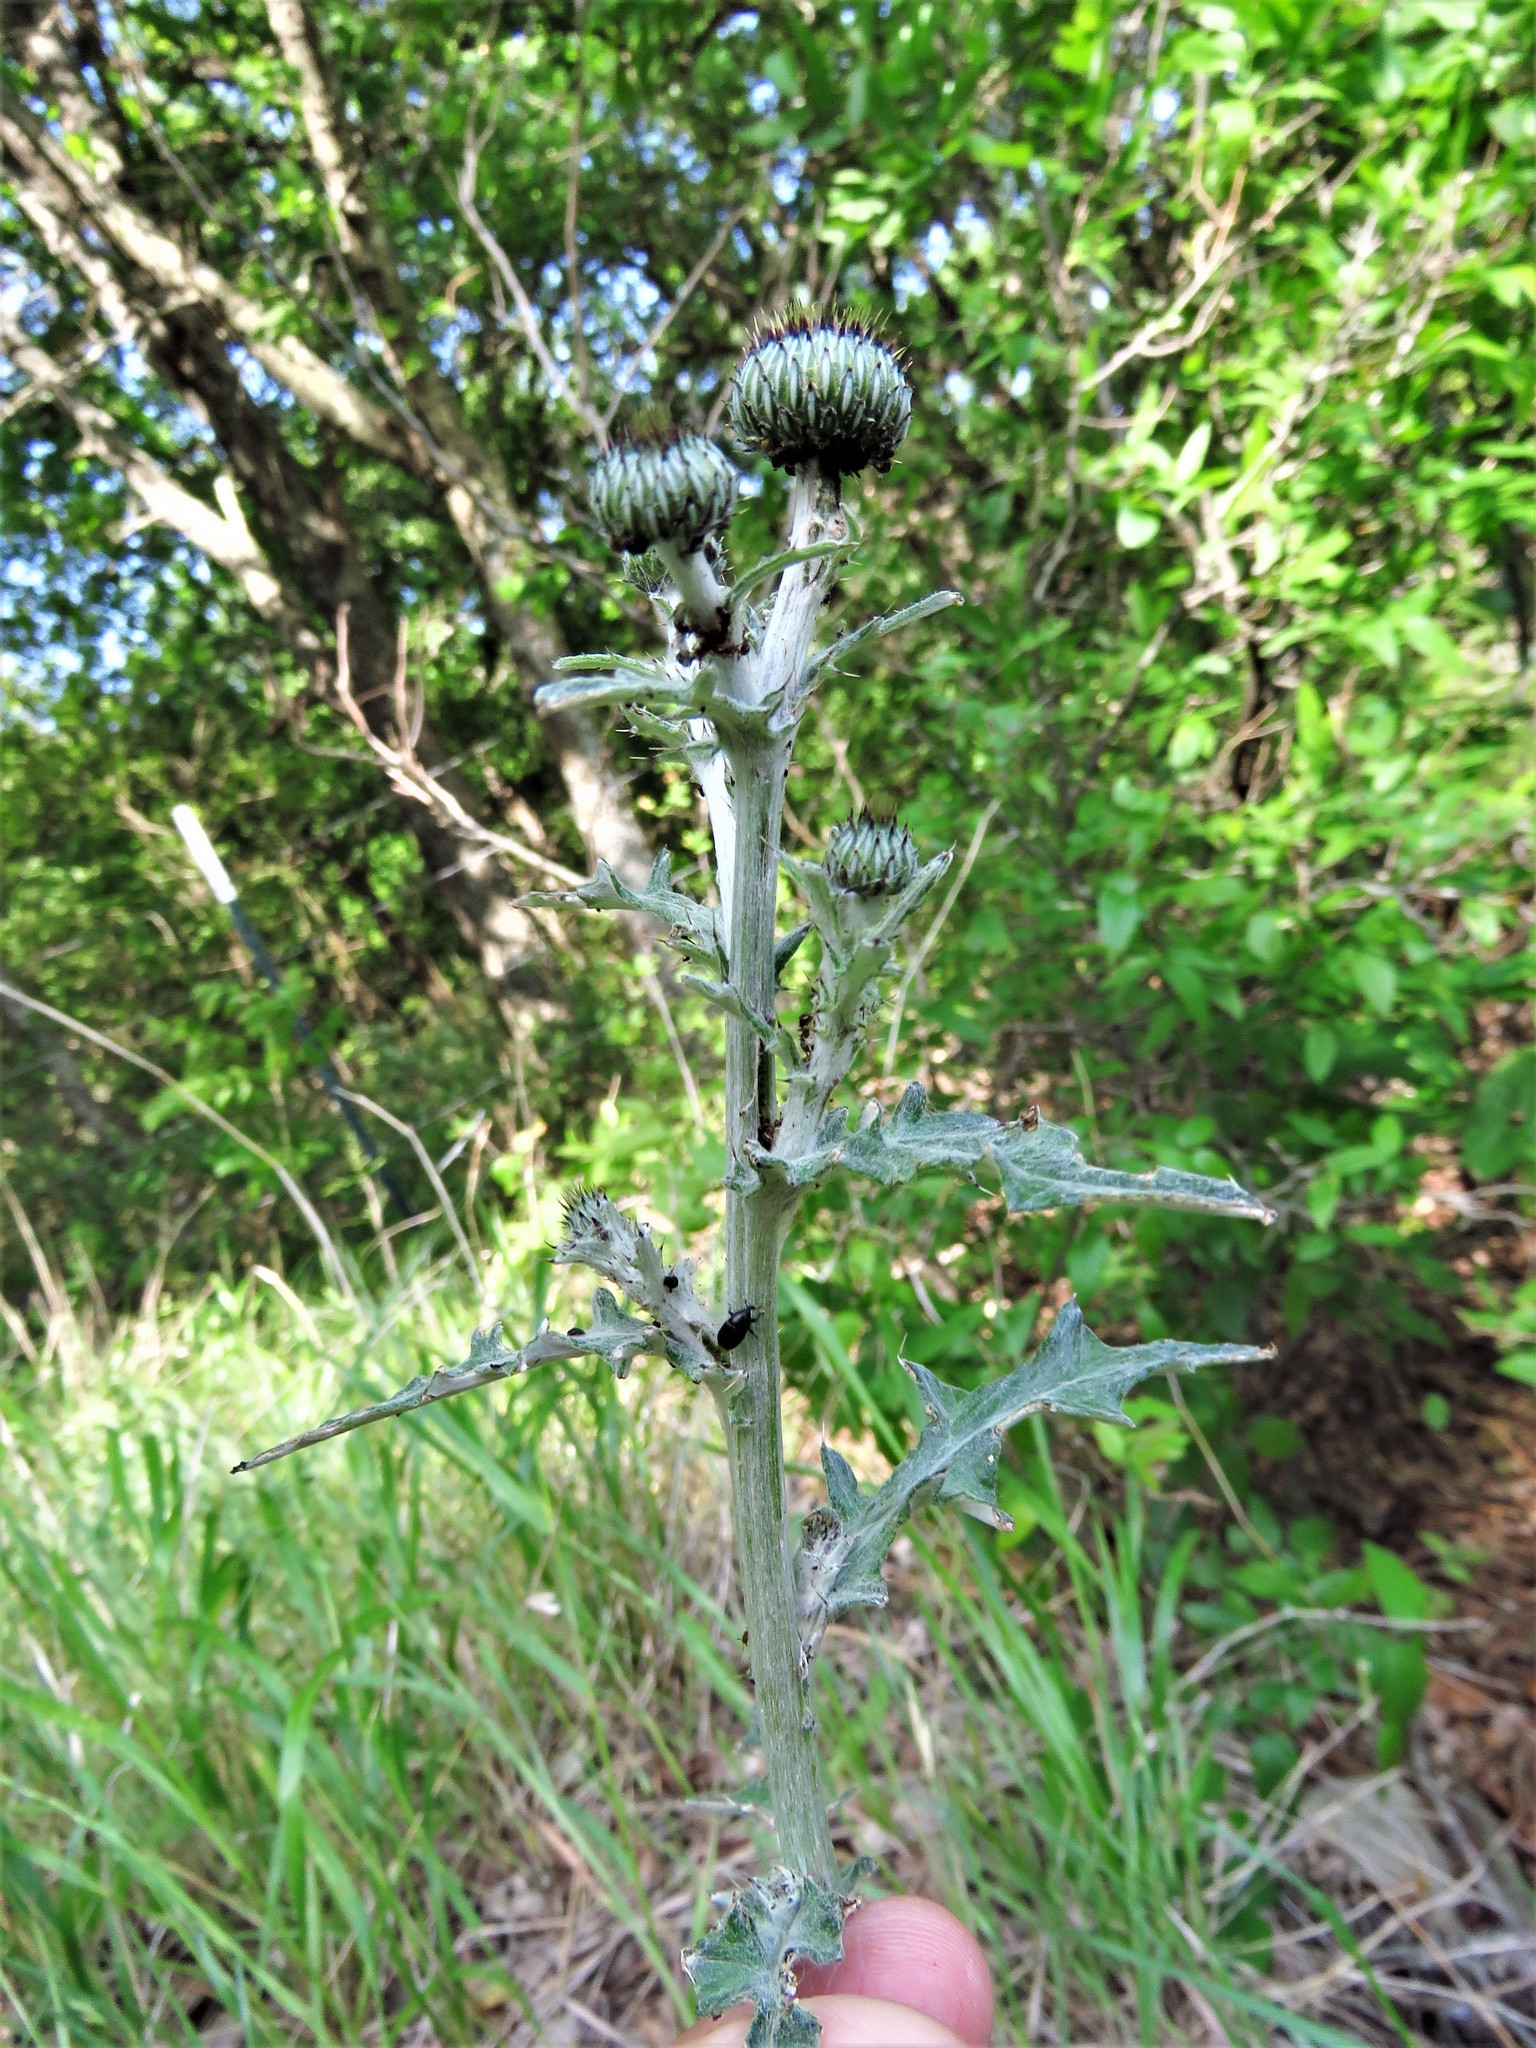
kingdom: Plantae
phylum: Tracheophyta
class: Magnoliopsida
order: Asterales
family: Asteraceae
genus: Cirsium
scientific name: Cirsium texanum
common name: Texas purple thistle
